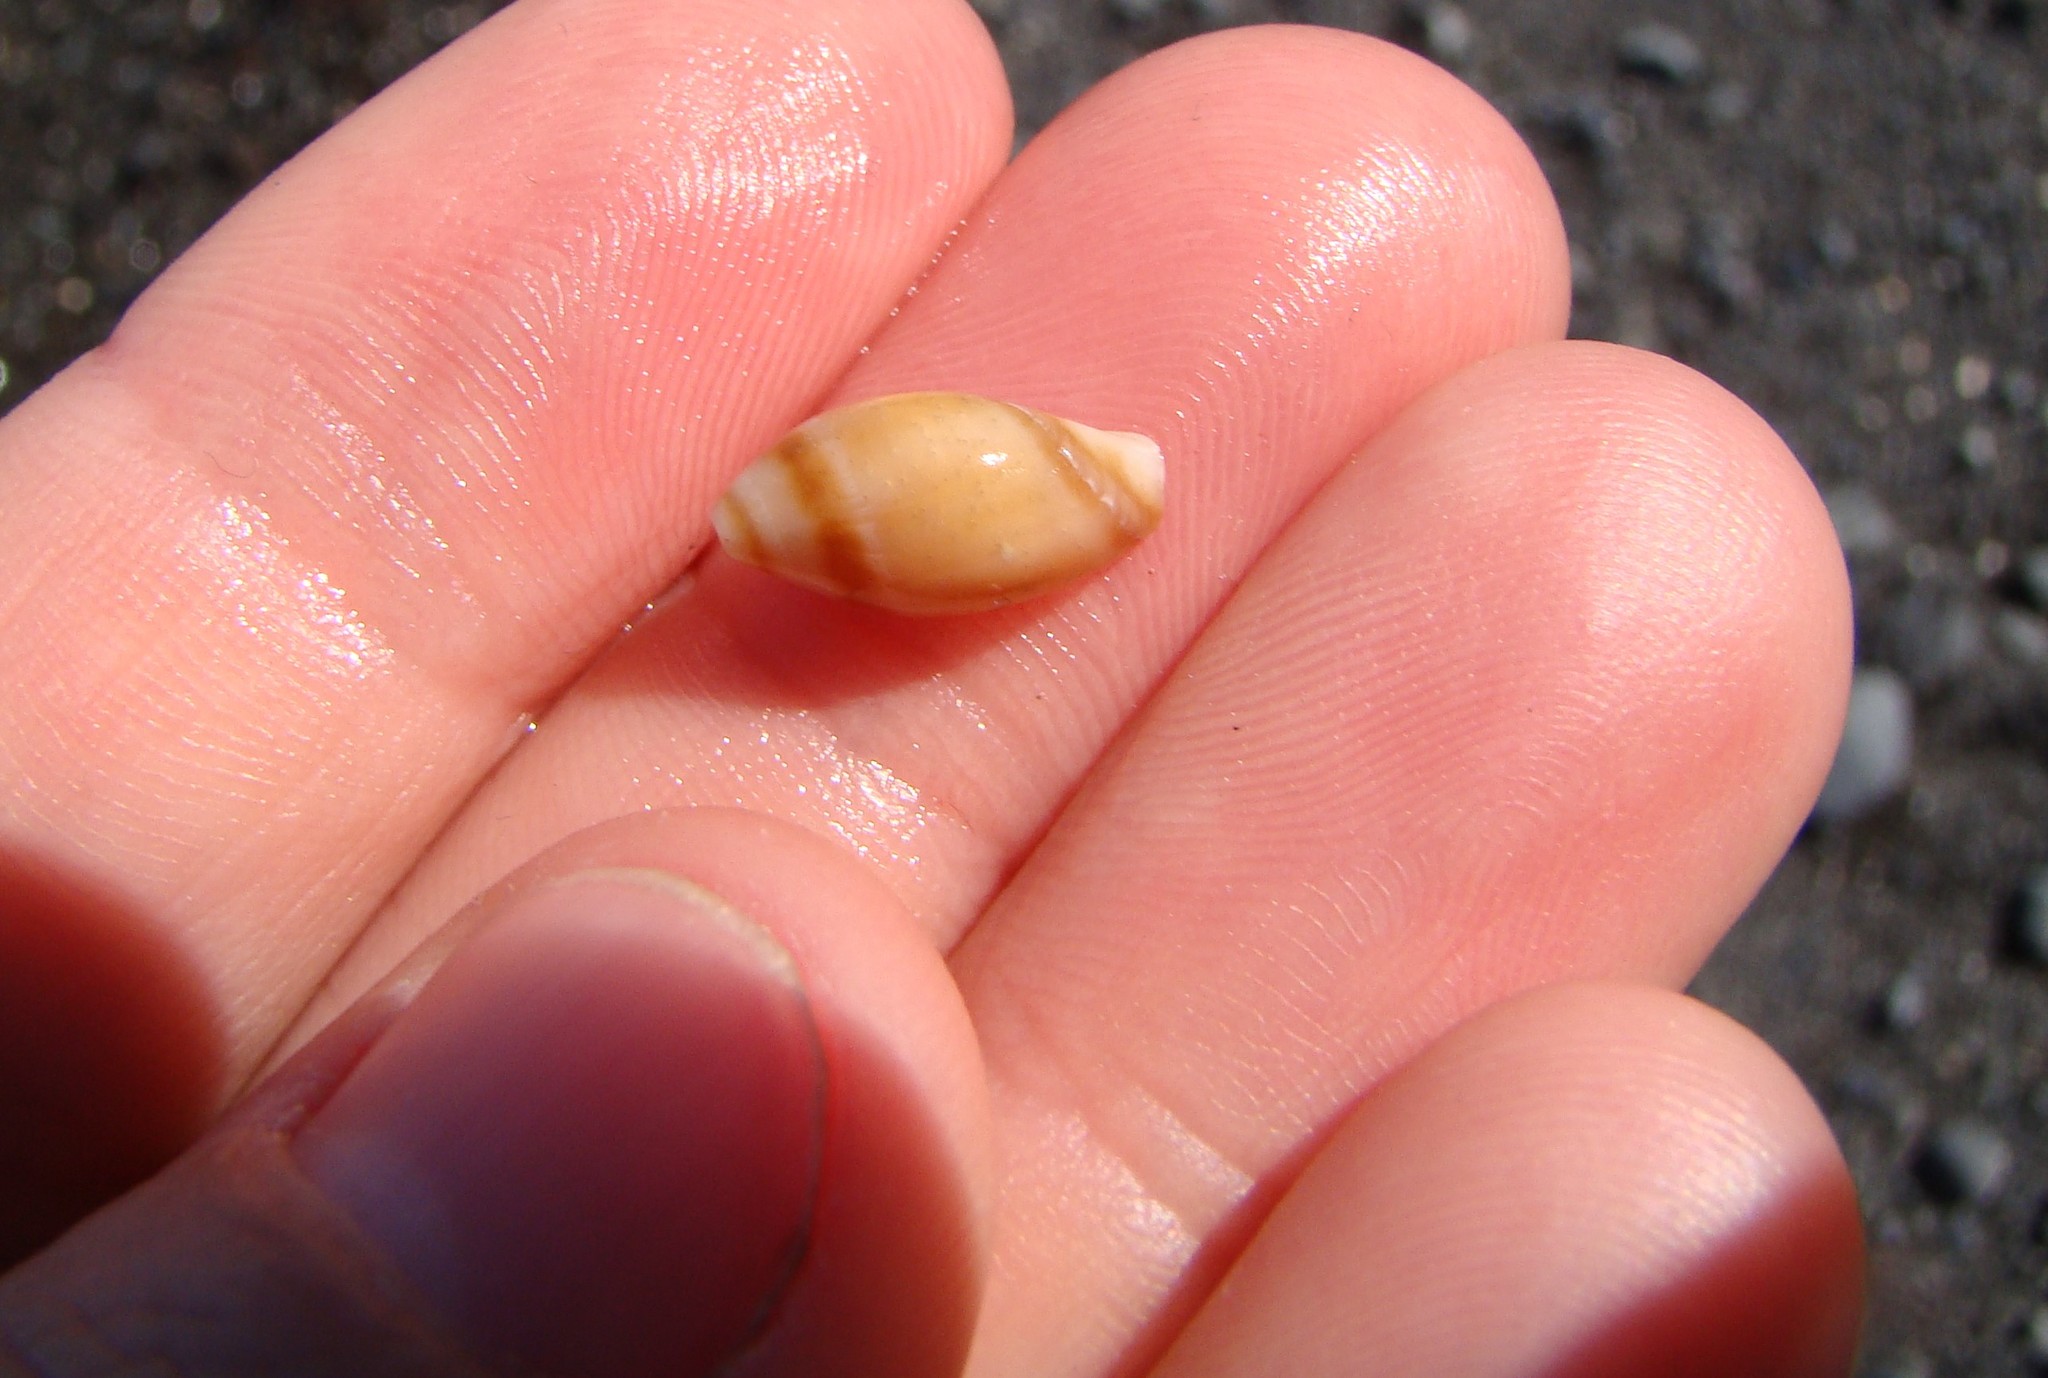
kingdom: Animalia
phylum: Mollusca
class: Gastropoda
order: Neogastropoda
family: Ancillariidae
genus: Amalda
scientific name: Amalda australis
